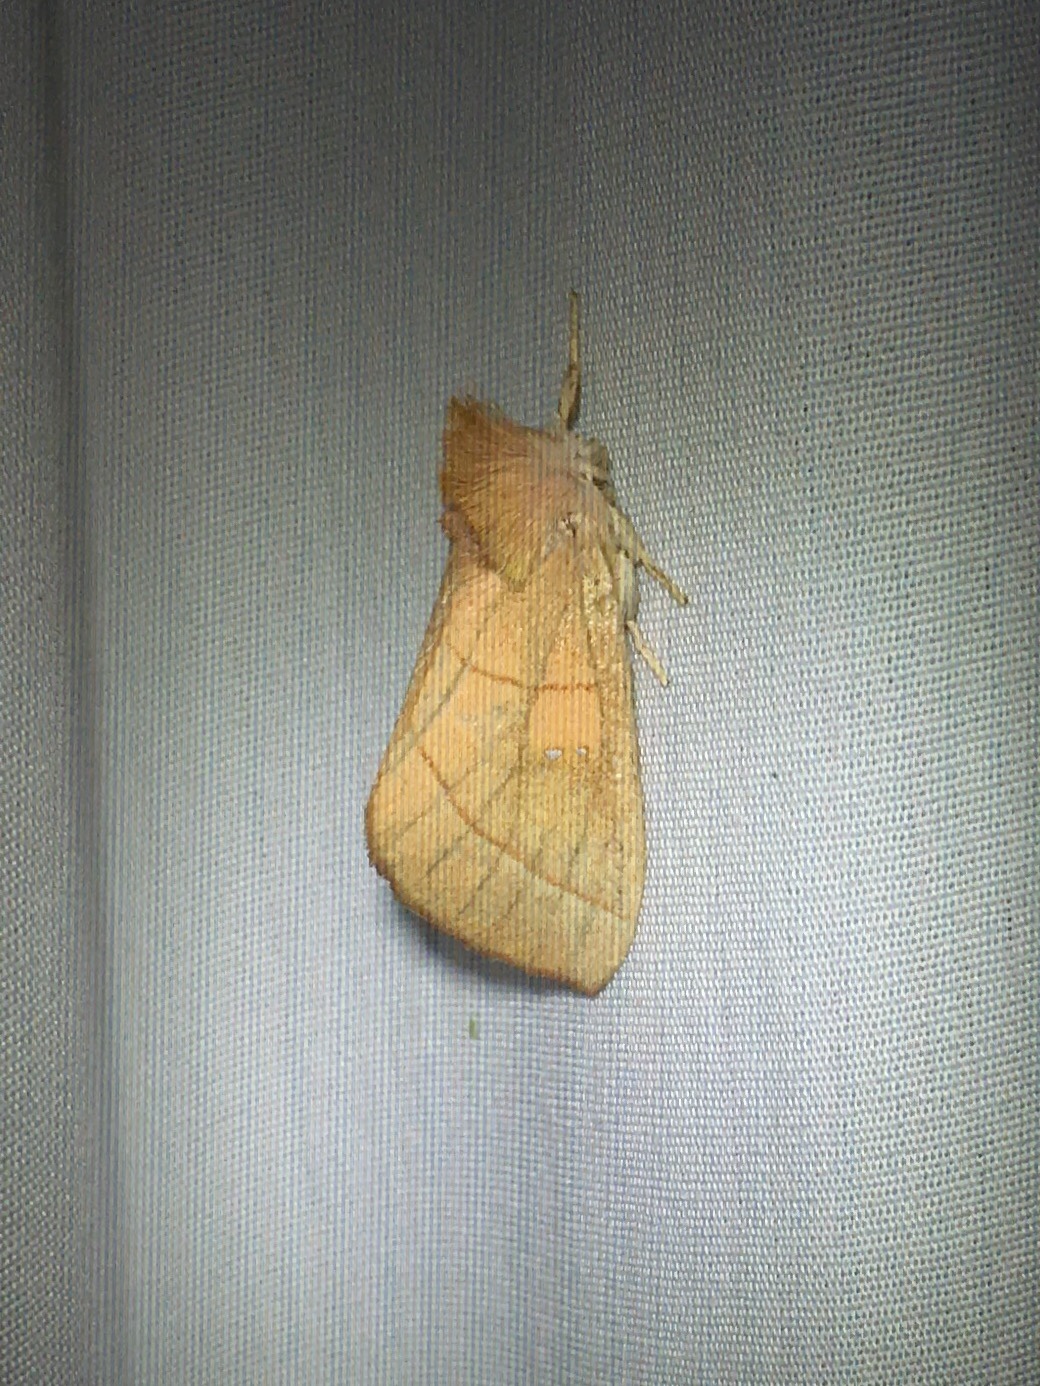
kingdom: Animalia
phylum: Arthropoda
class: Insecta
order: Lepidoptera
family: Notodontidae
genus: Nadata
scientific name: Nadata gibbosa
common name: White-dotted prominent
